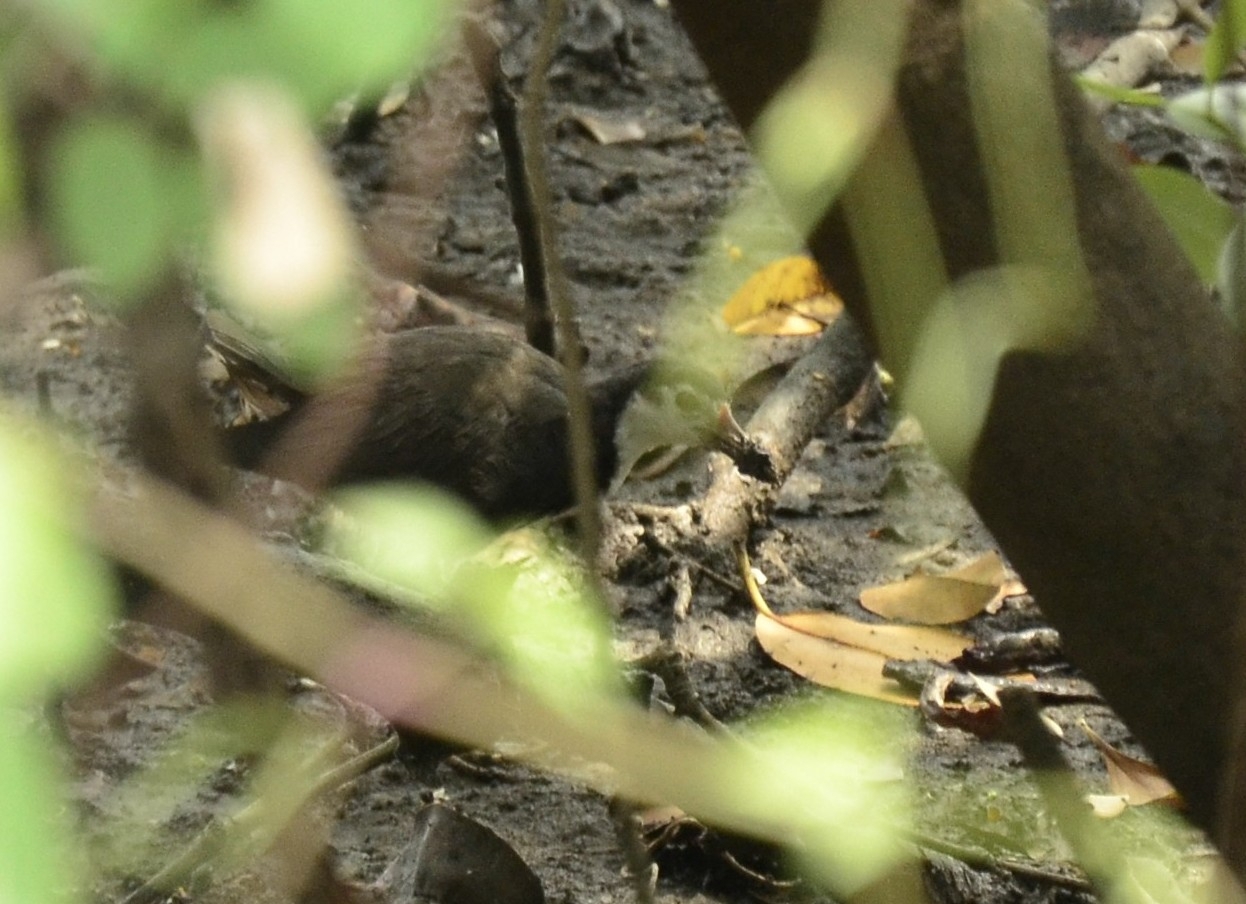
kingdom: Animalia
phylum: Chordata
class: Aves
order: Gruiformes
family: Rallidae
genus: Amaurornis
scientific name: Amaurornis phoenicurus
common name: White-breasted waterhen
